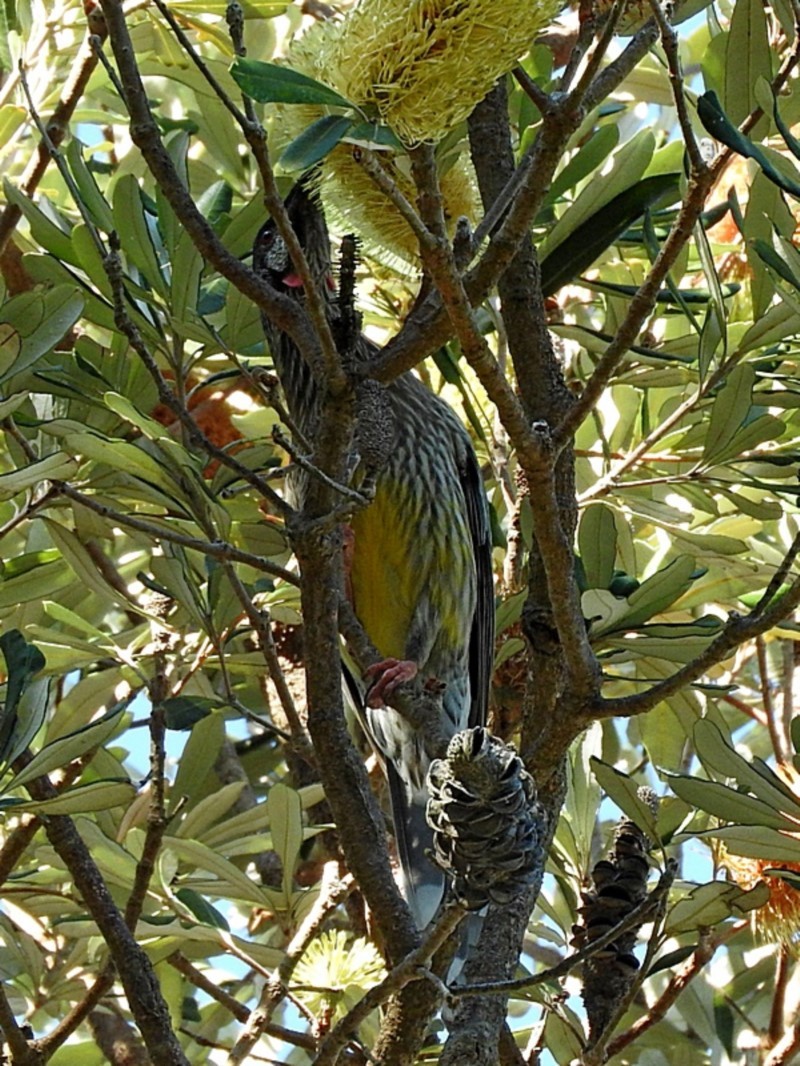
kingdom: Animalia
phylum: Chordata
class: Aves
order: Passeriformes
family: Meliphagidae
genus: Anthochaera
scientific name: Anthochaera carunculata
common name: Red wattlebird
